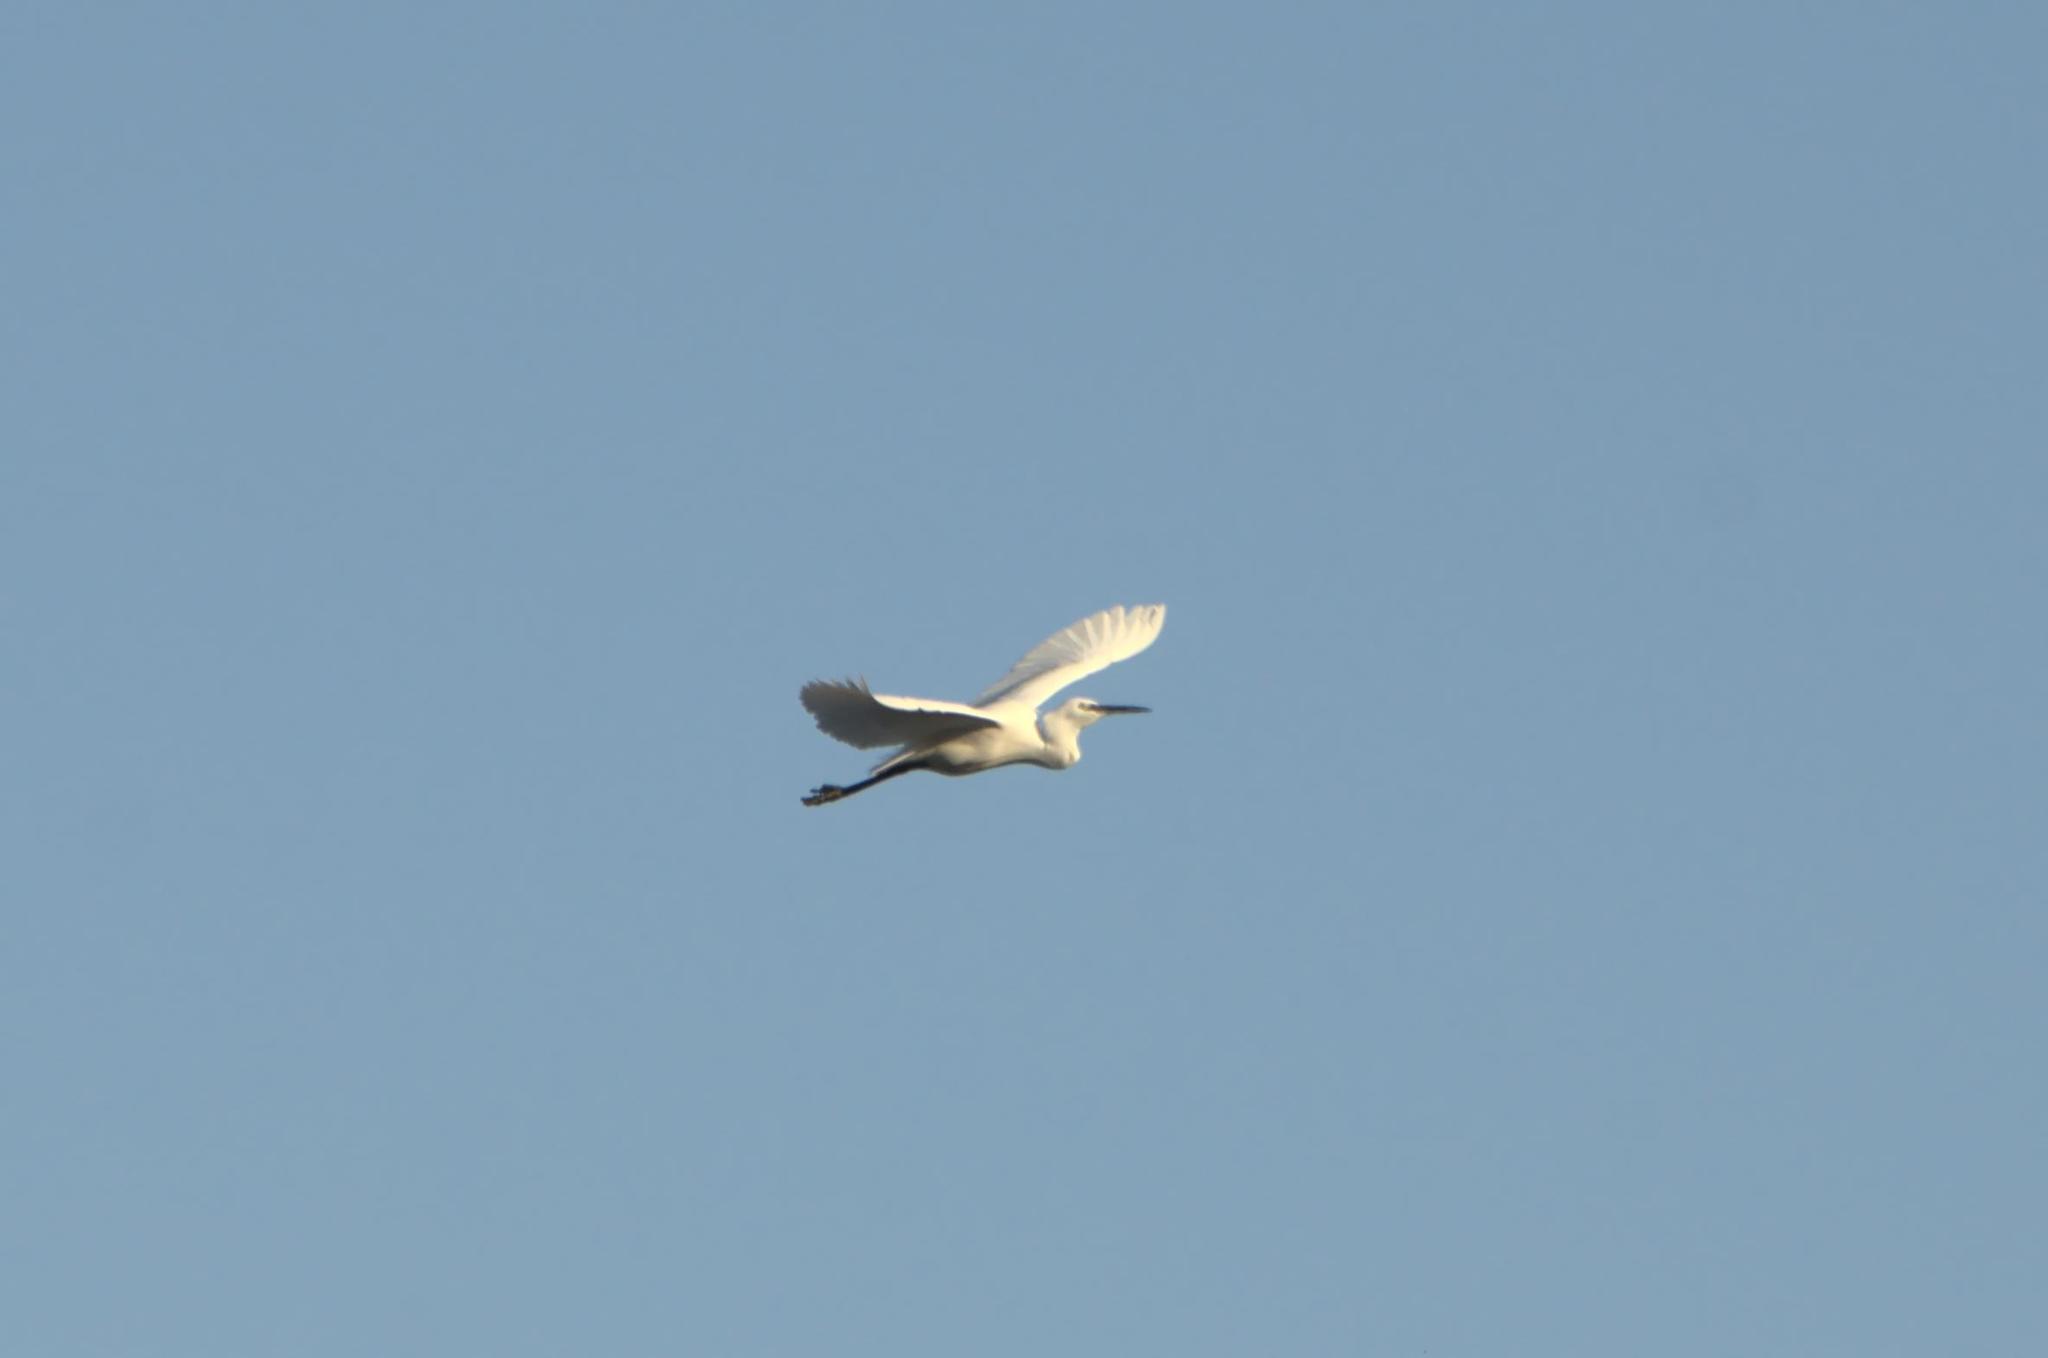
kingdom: Animalia
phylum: Chordata
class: Aves
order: Pelecaniformes
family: Ardeidae
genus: Egretta
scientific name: Egretta garzetta
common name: Little egret
